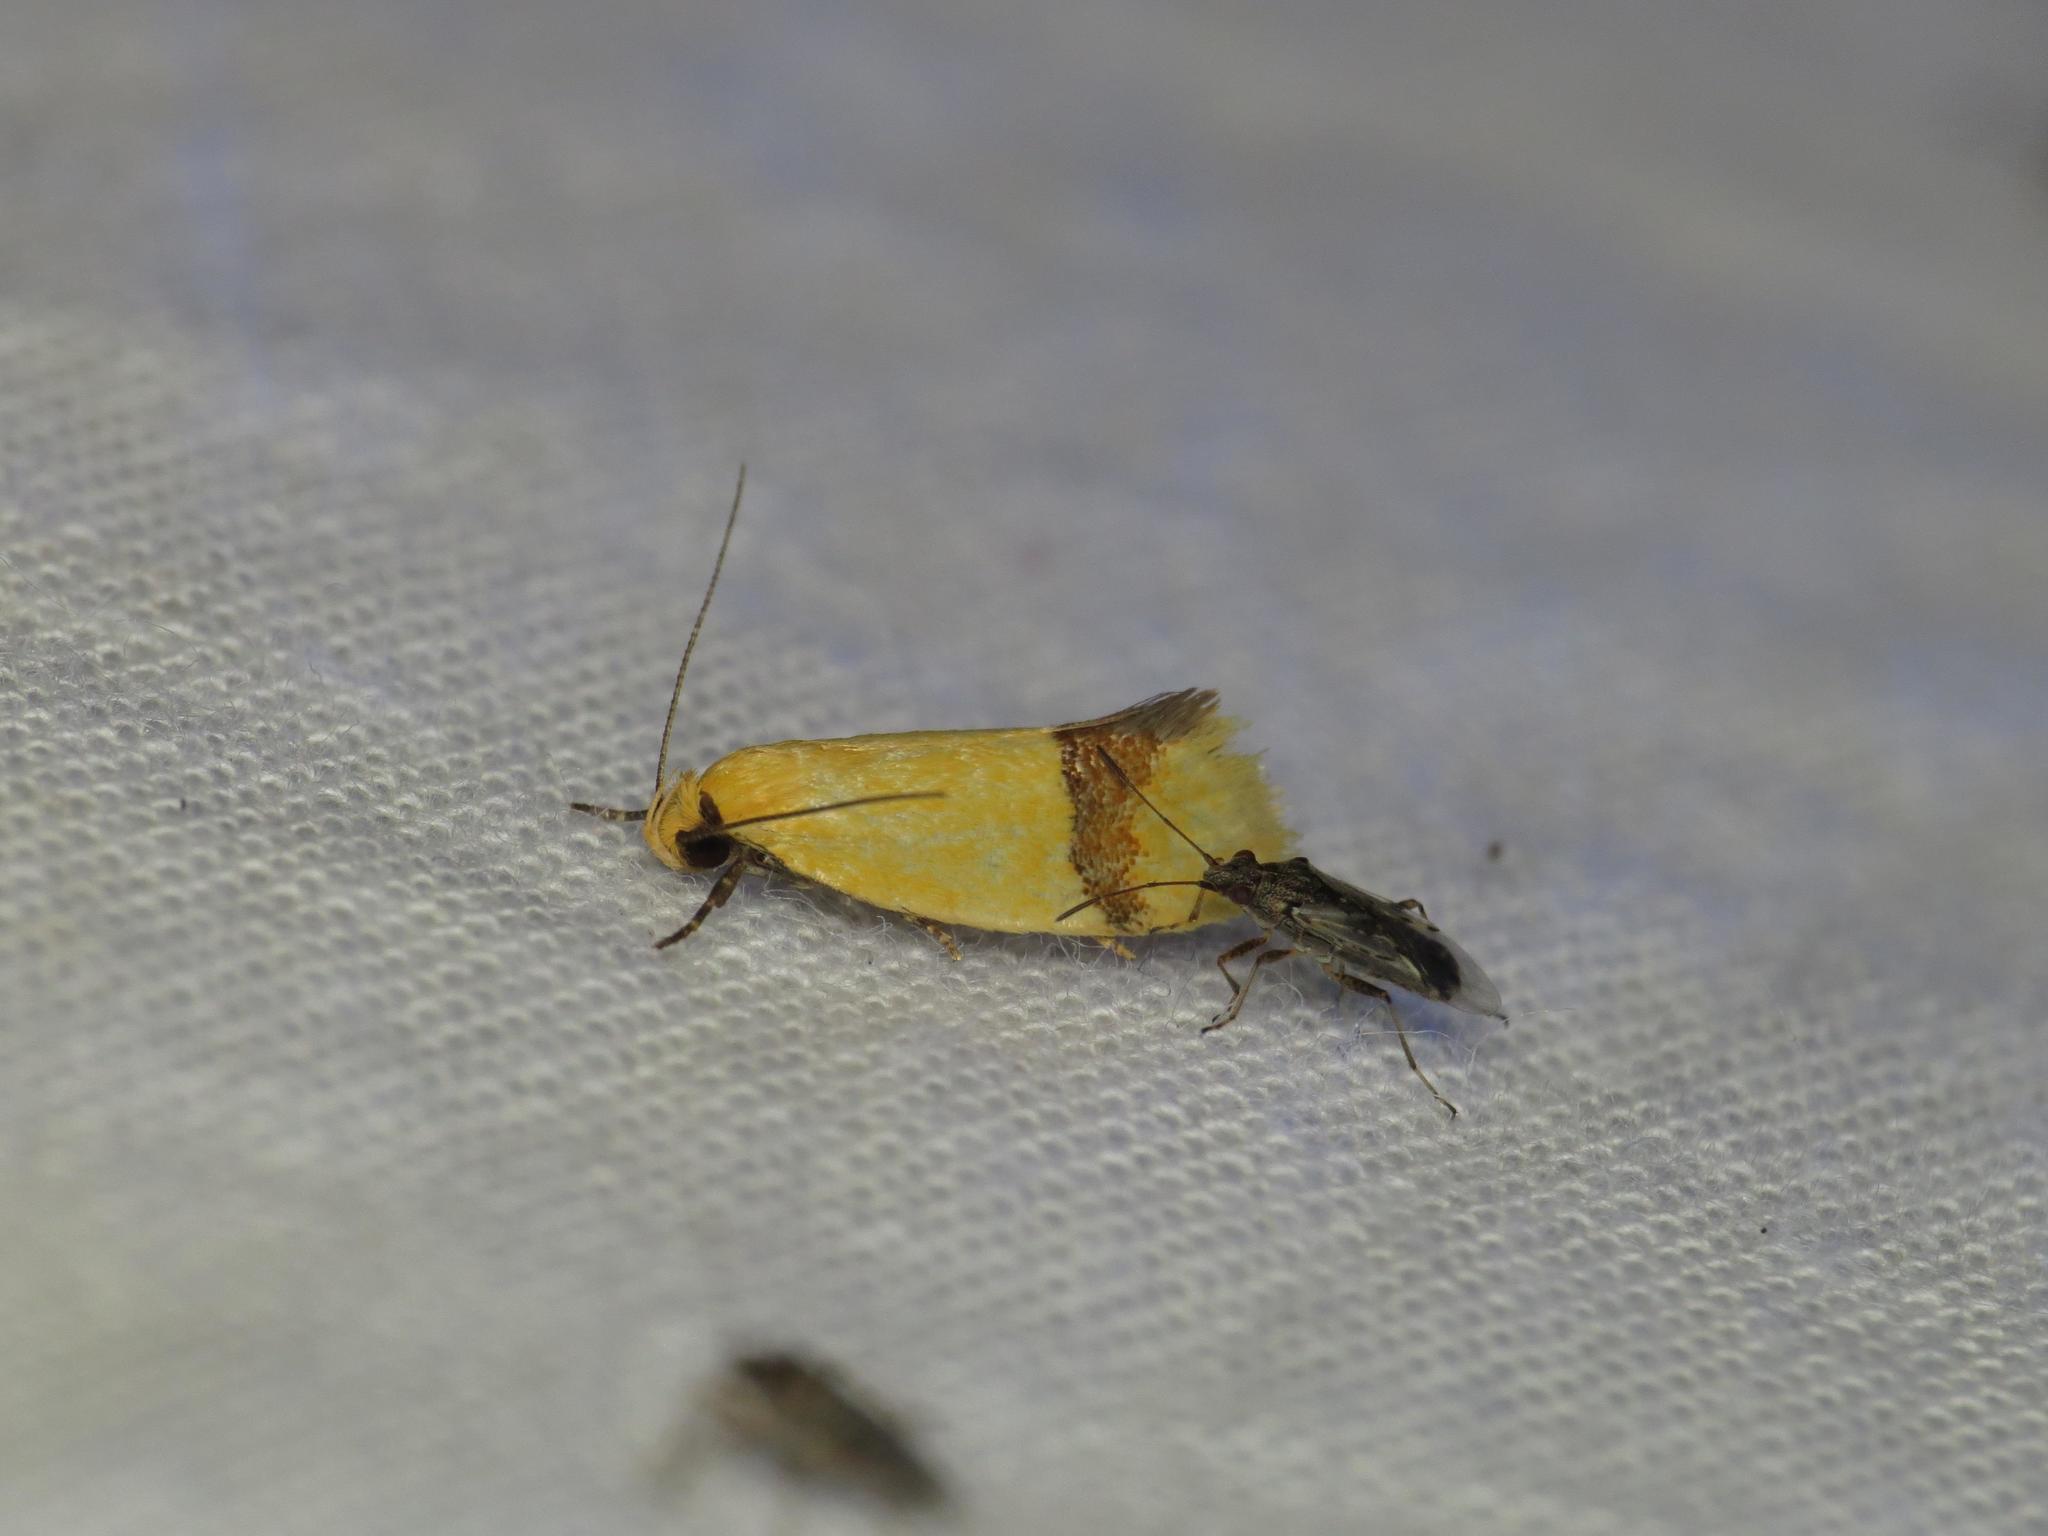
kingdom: Animalia
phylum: Arthropoda
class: Insecta
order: Lepidoptera
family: Oecophoridae
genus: Coesyra
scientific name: Coesyra phaeozona
